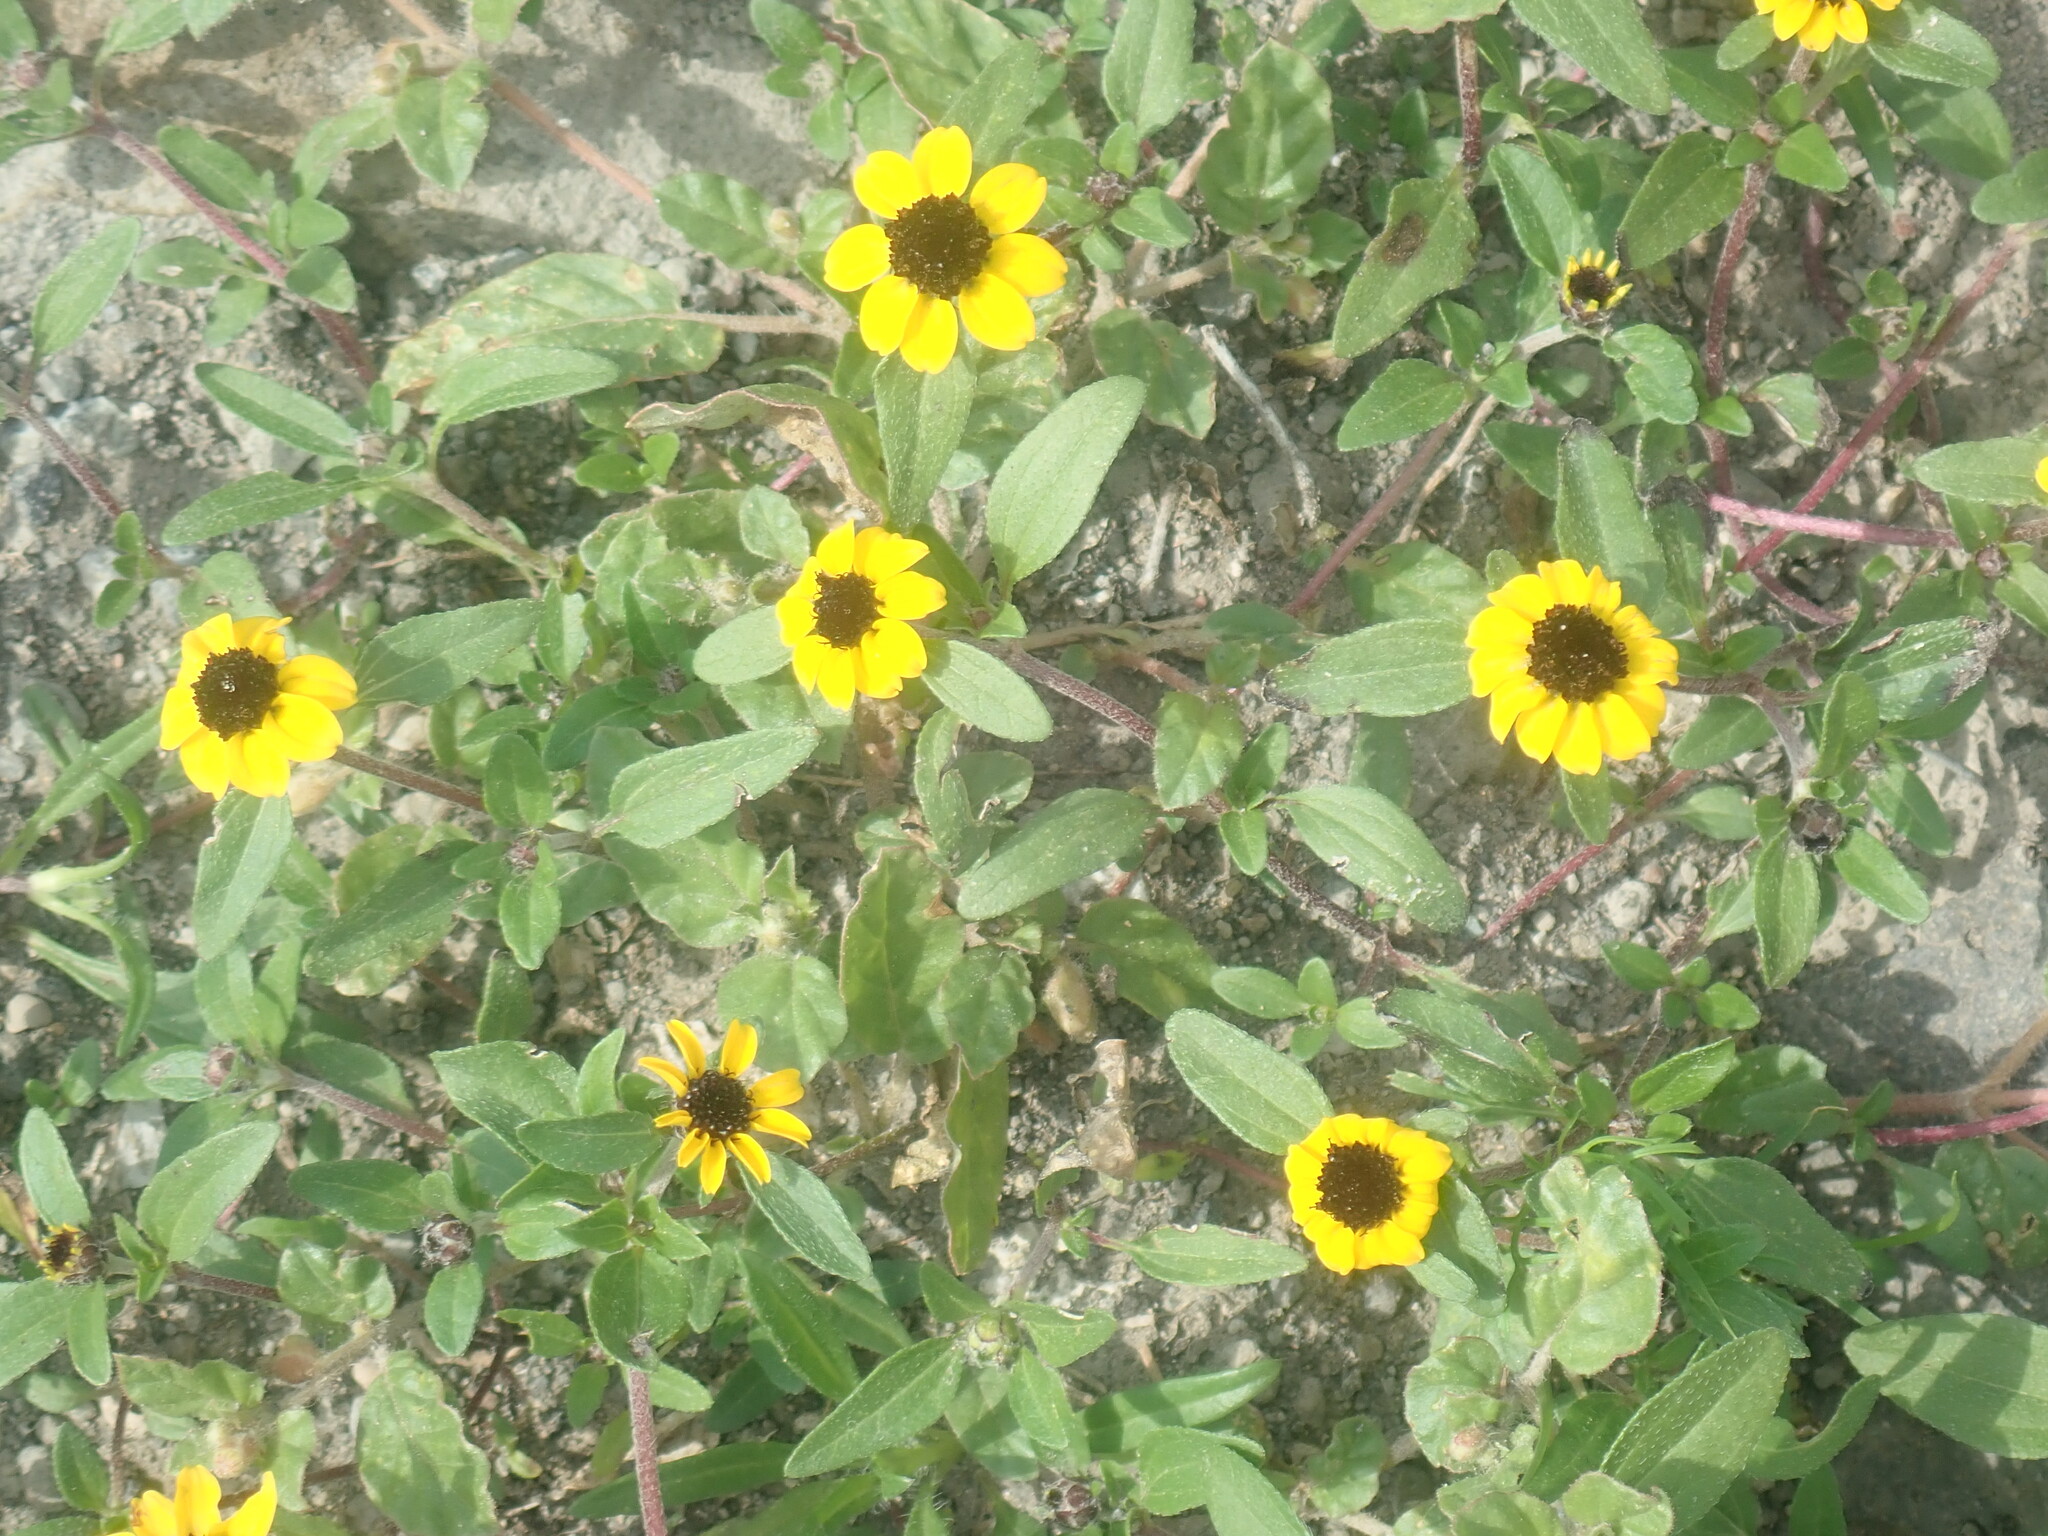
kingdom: Plantae
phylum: Tracheophyta
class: Magnoliopsida
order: Asterales
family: Asteraceae
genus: Sanvitalia
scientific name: Sanvitalia procumbens
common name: Mexican creeping zinnia
